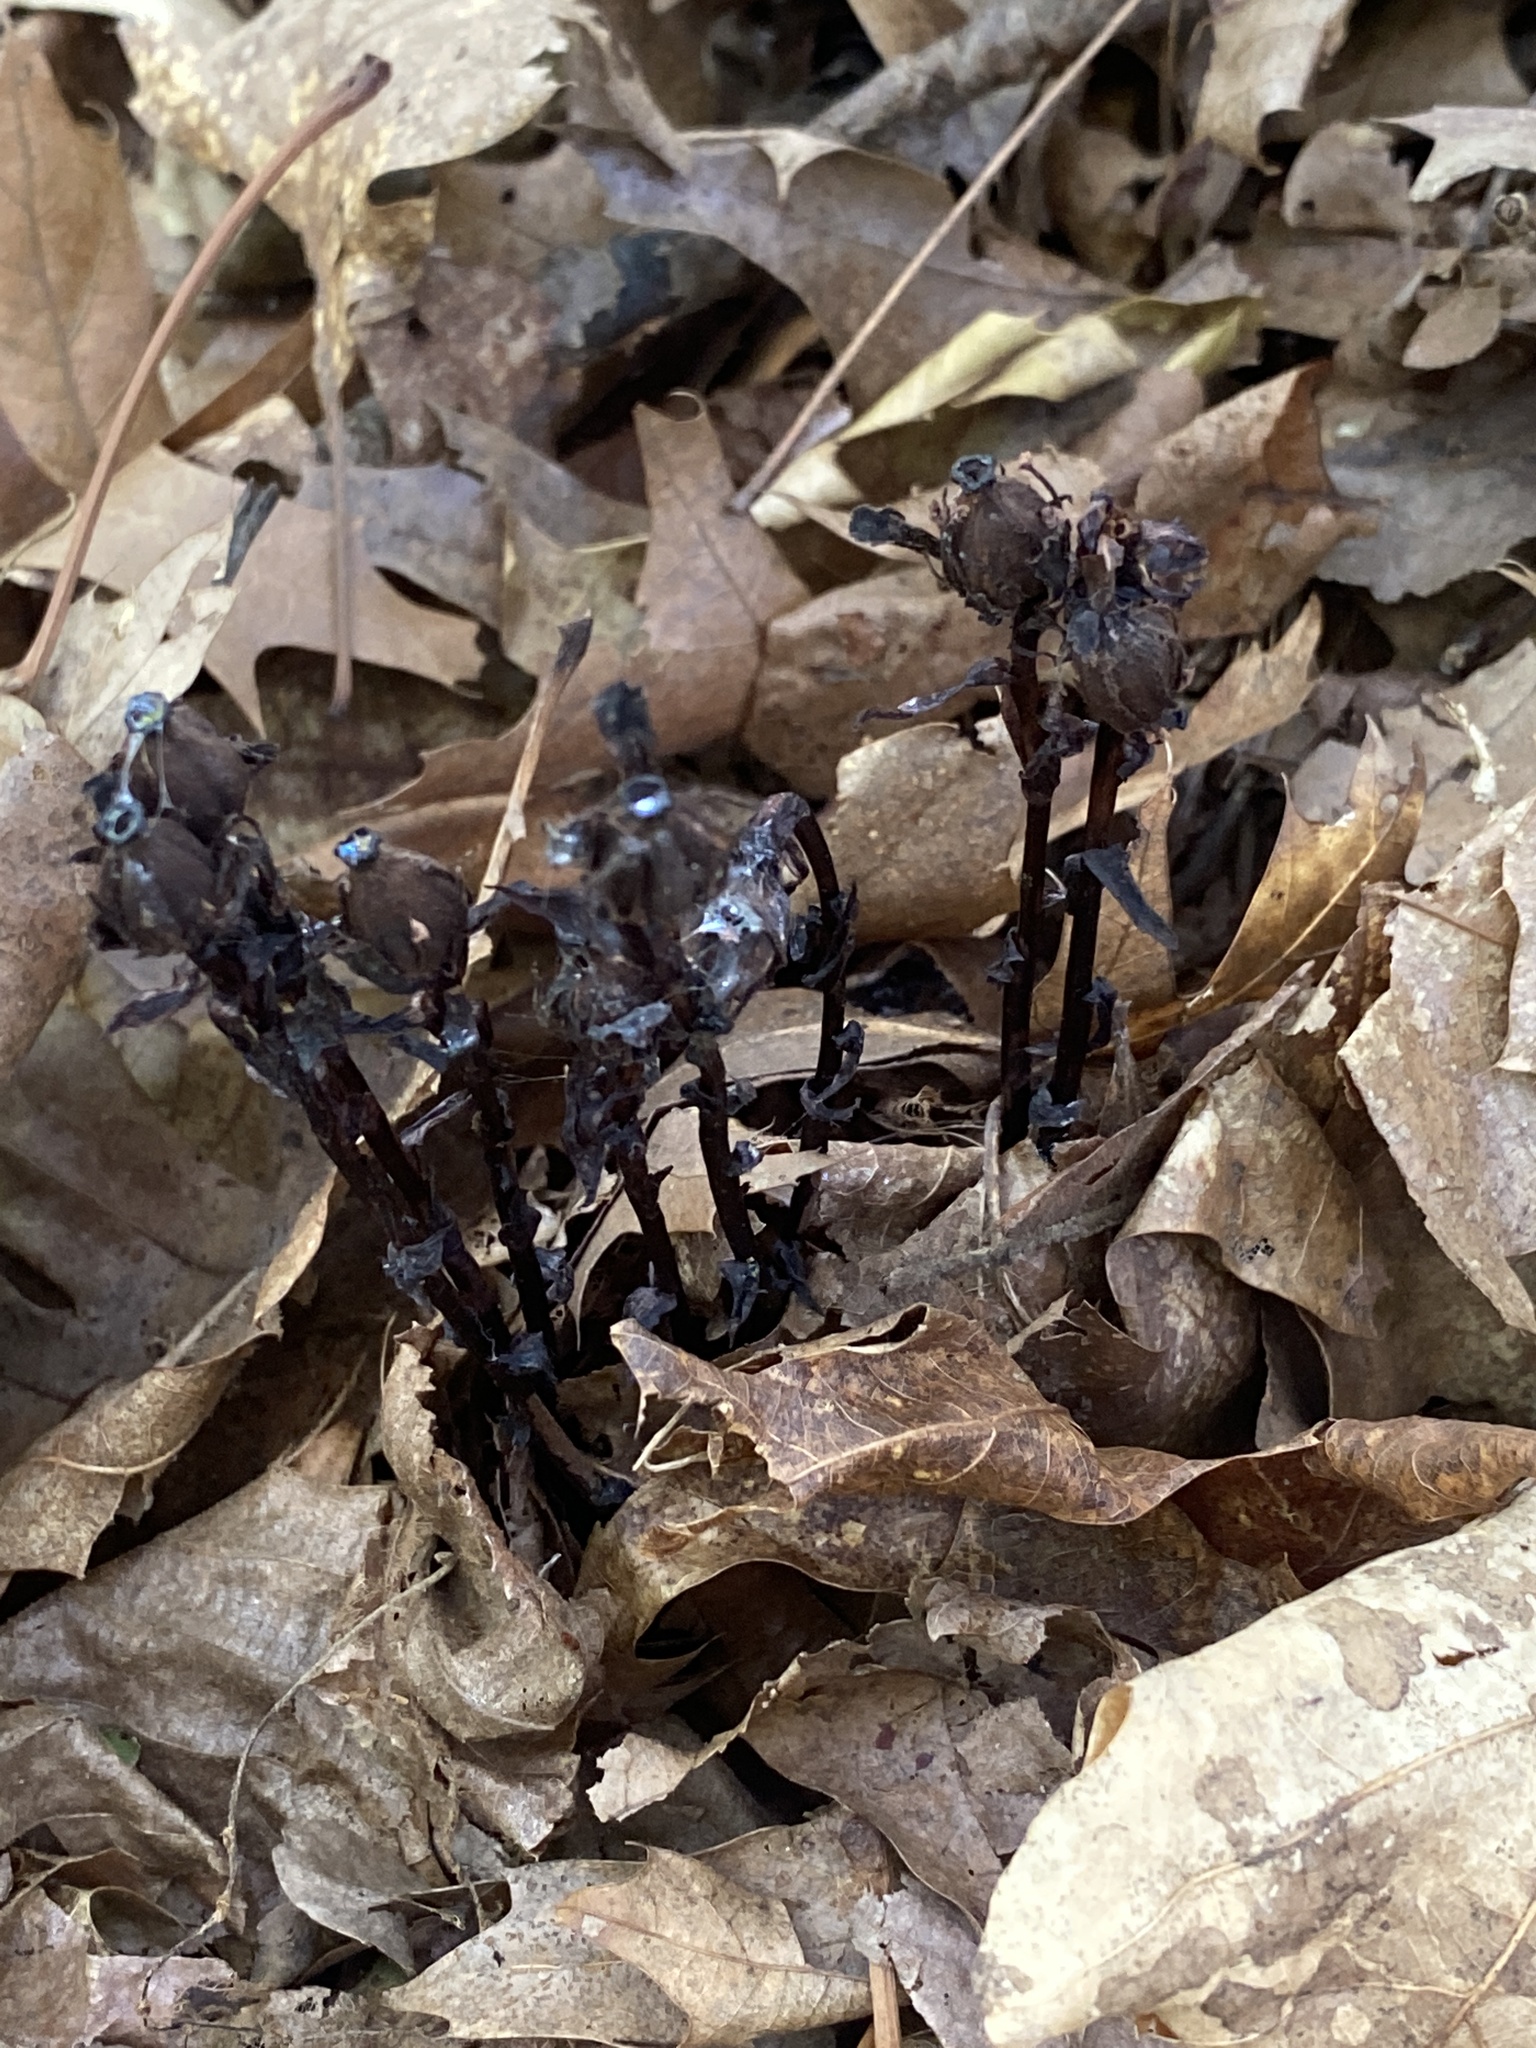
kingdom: Plantae
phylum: Tracheophyta
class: Magnoliopsida
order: Ericales
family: Ericaceae
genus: Monotropa
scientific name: Monotropa uniflora
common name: Convulsion root
